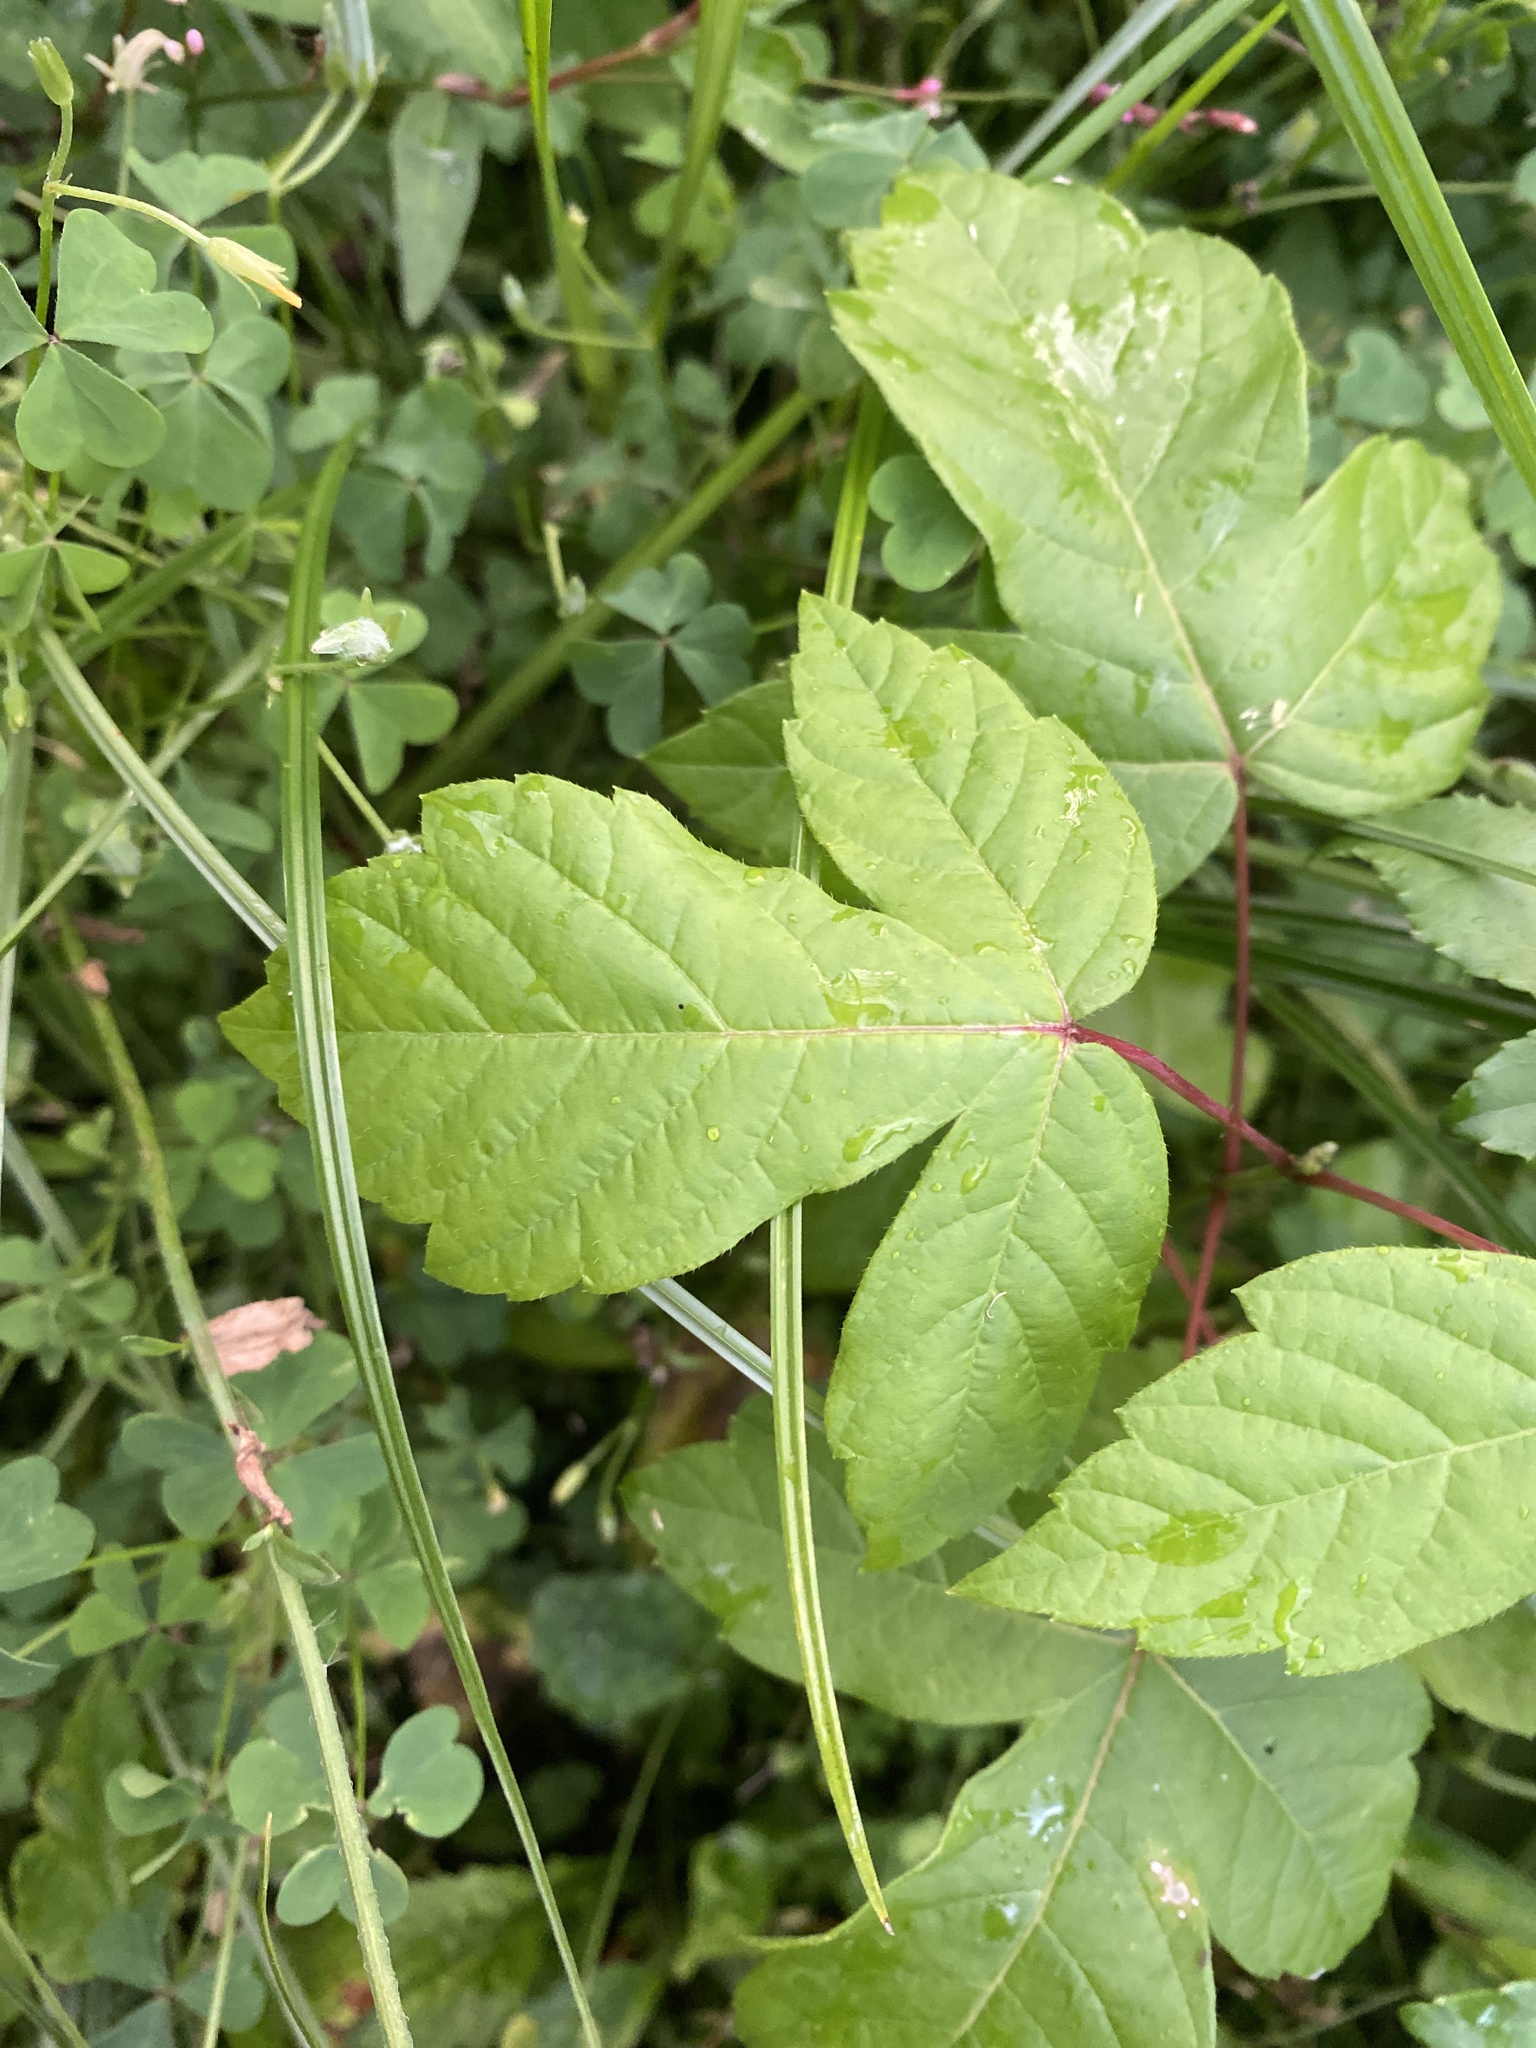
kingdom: Plantae
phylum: Tracheophyta
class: Magnoliopsida
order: Sapindales
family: Sapindaceae
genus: Acer
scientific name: Acer negundo
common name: Ashleaf maple
